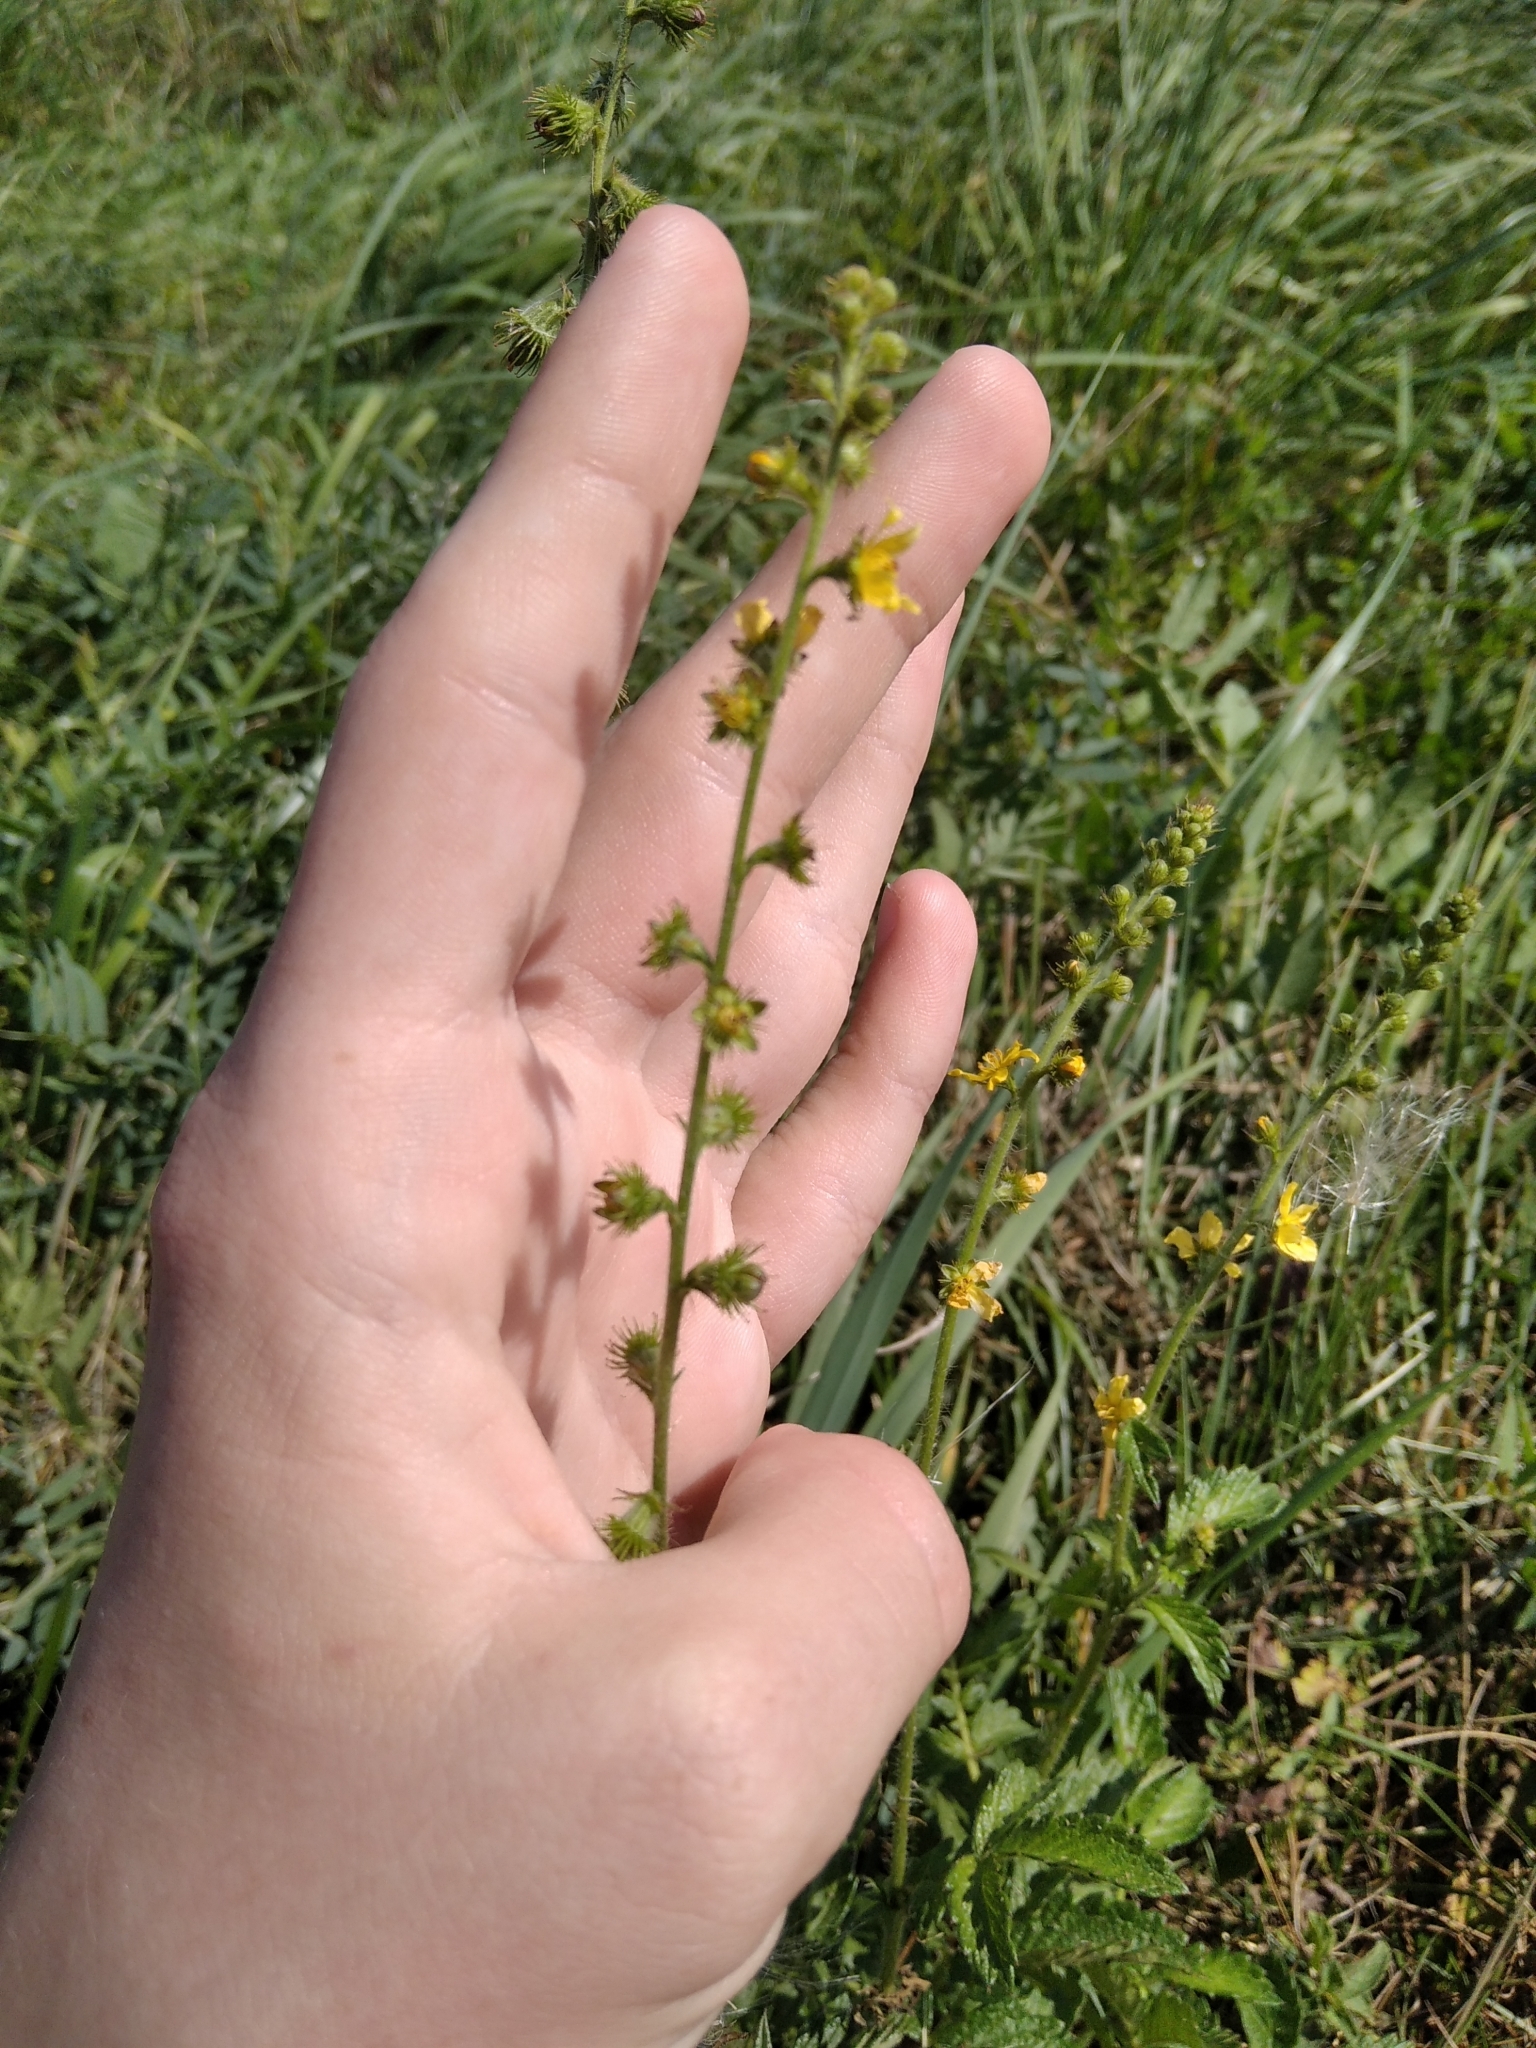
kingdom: Plantae
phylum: Tracheophyta
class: Magnoliopsida
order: Rosales
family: Rosaceae
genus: Agrimonia
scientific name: Agrimonia eupatoria
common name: Agrimony
